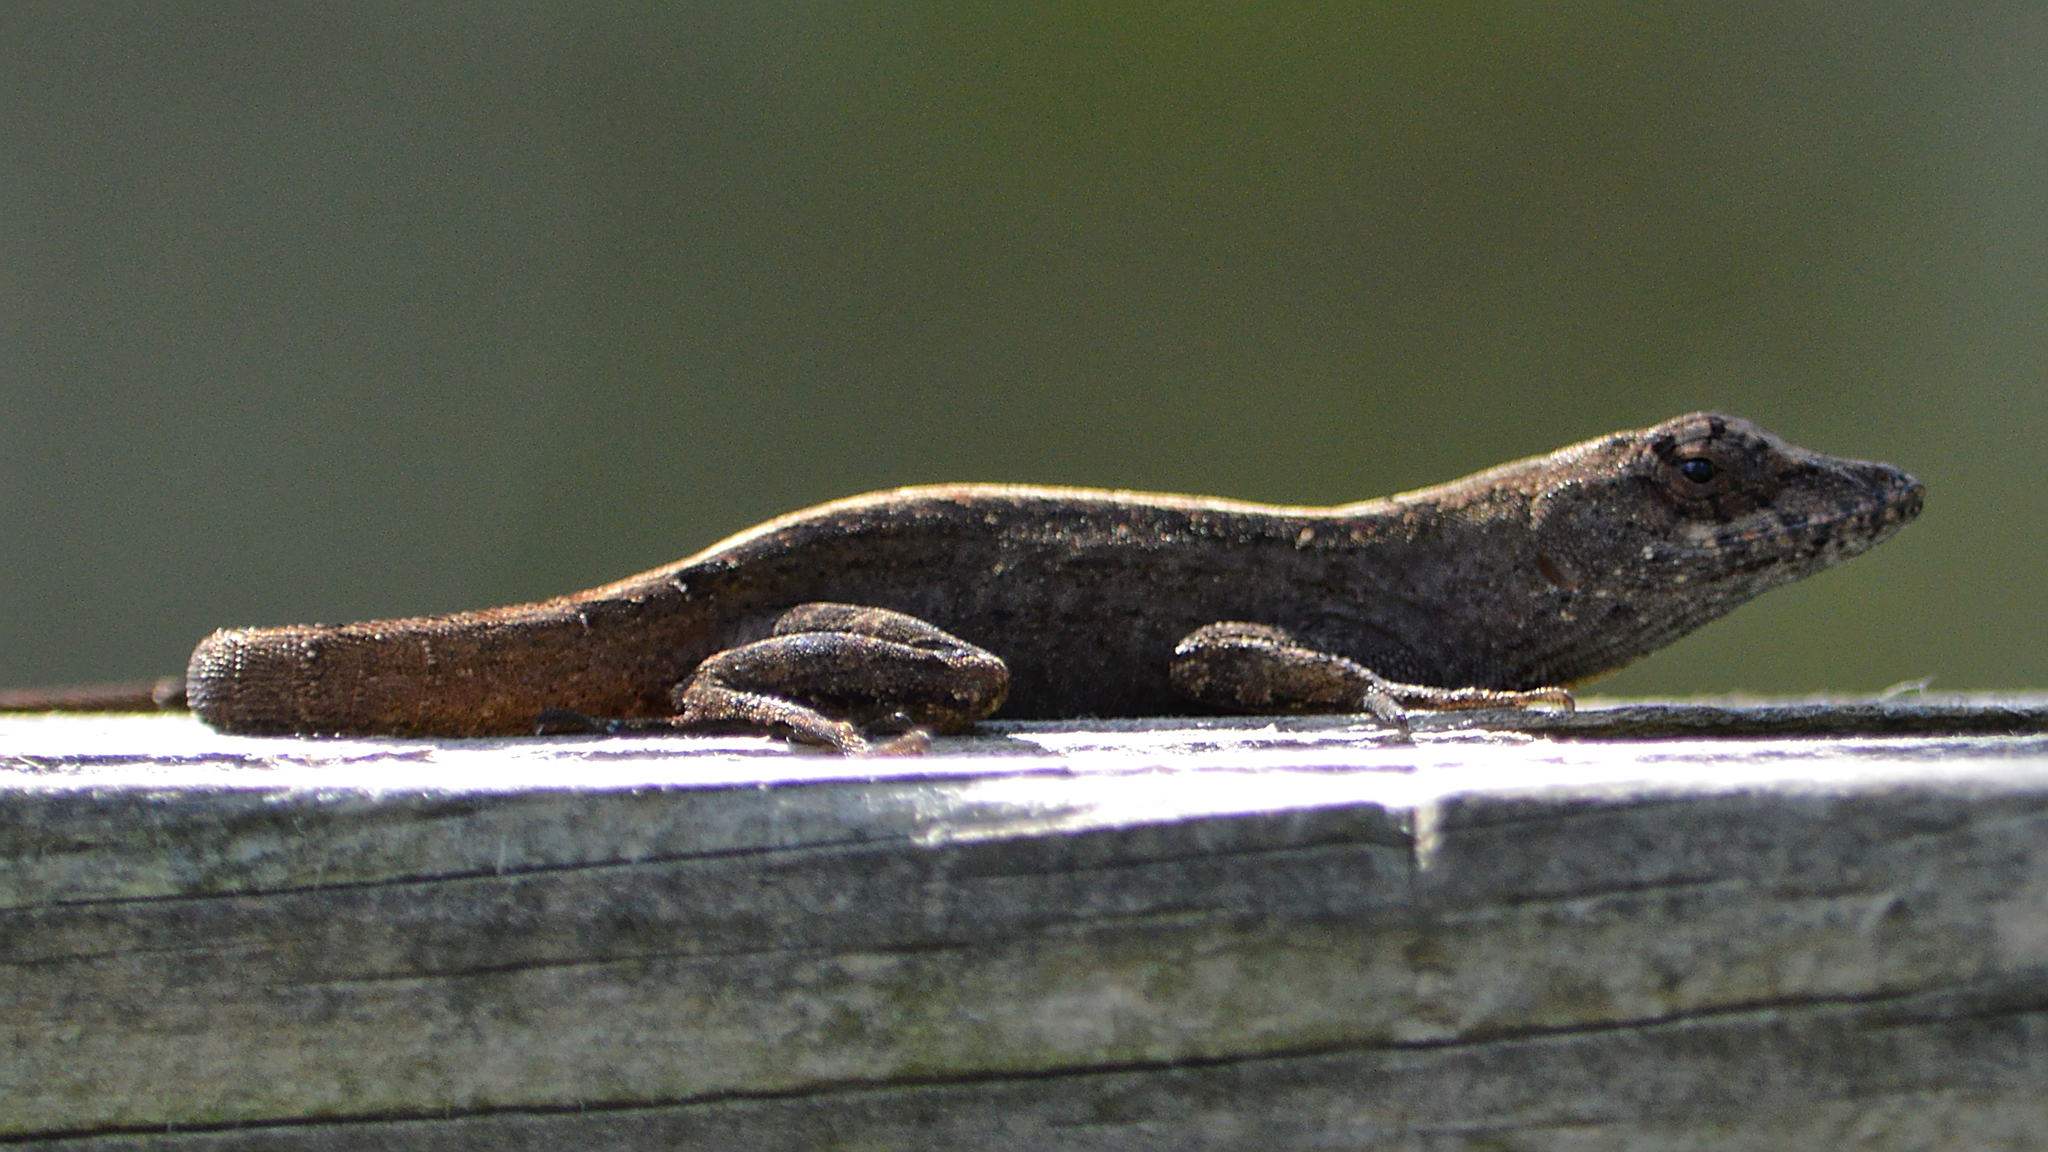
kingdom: Animalia
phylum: Chordata
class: Squamata
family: Dactyloidae
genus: Anolis
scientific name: Anolis sagrei
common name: Brown anole
